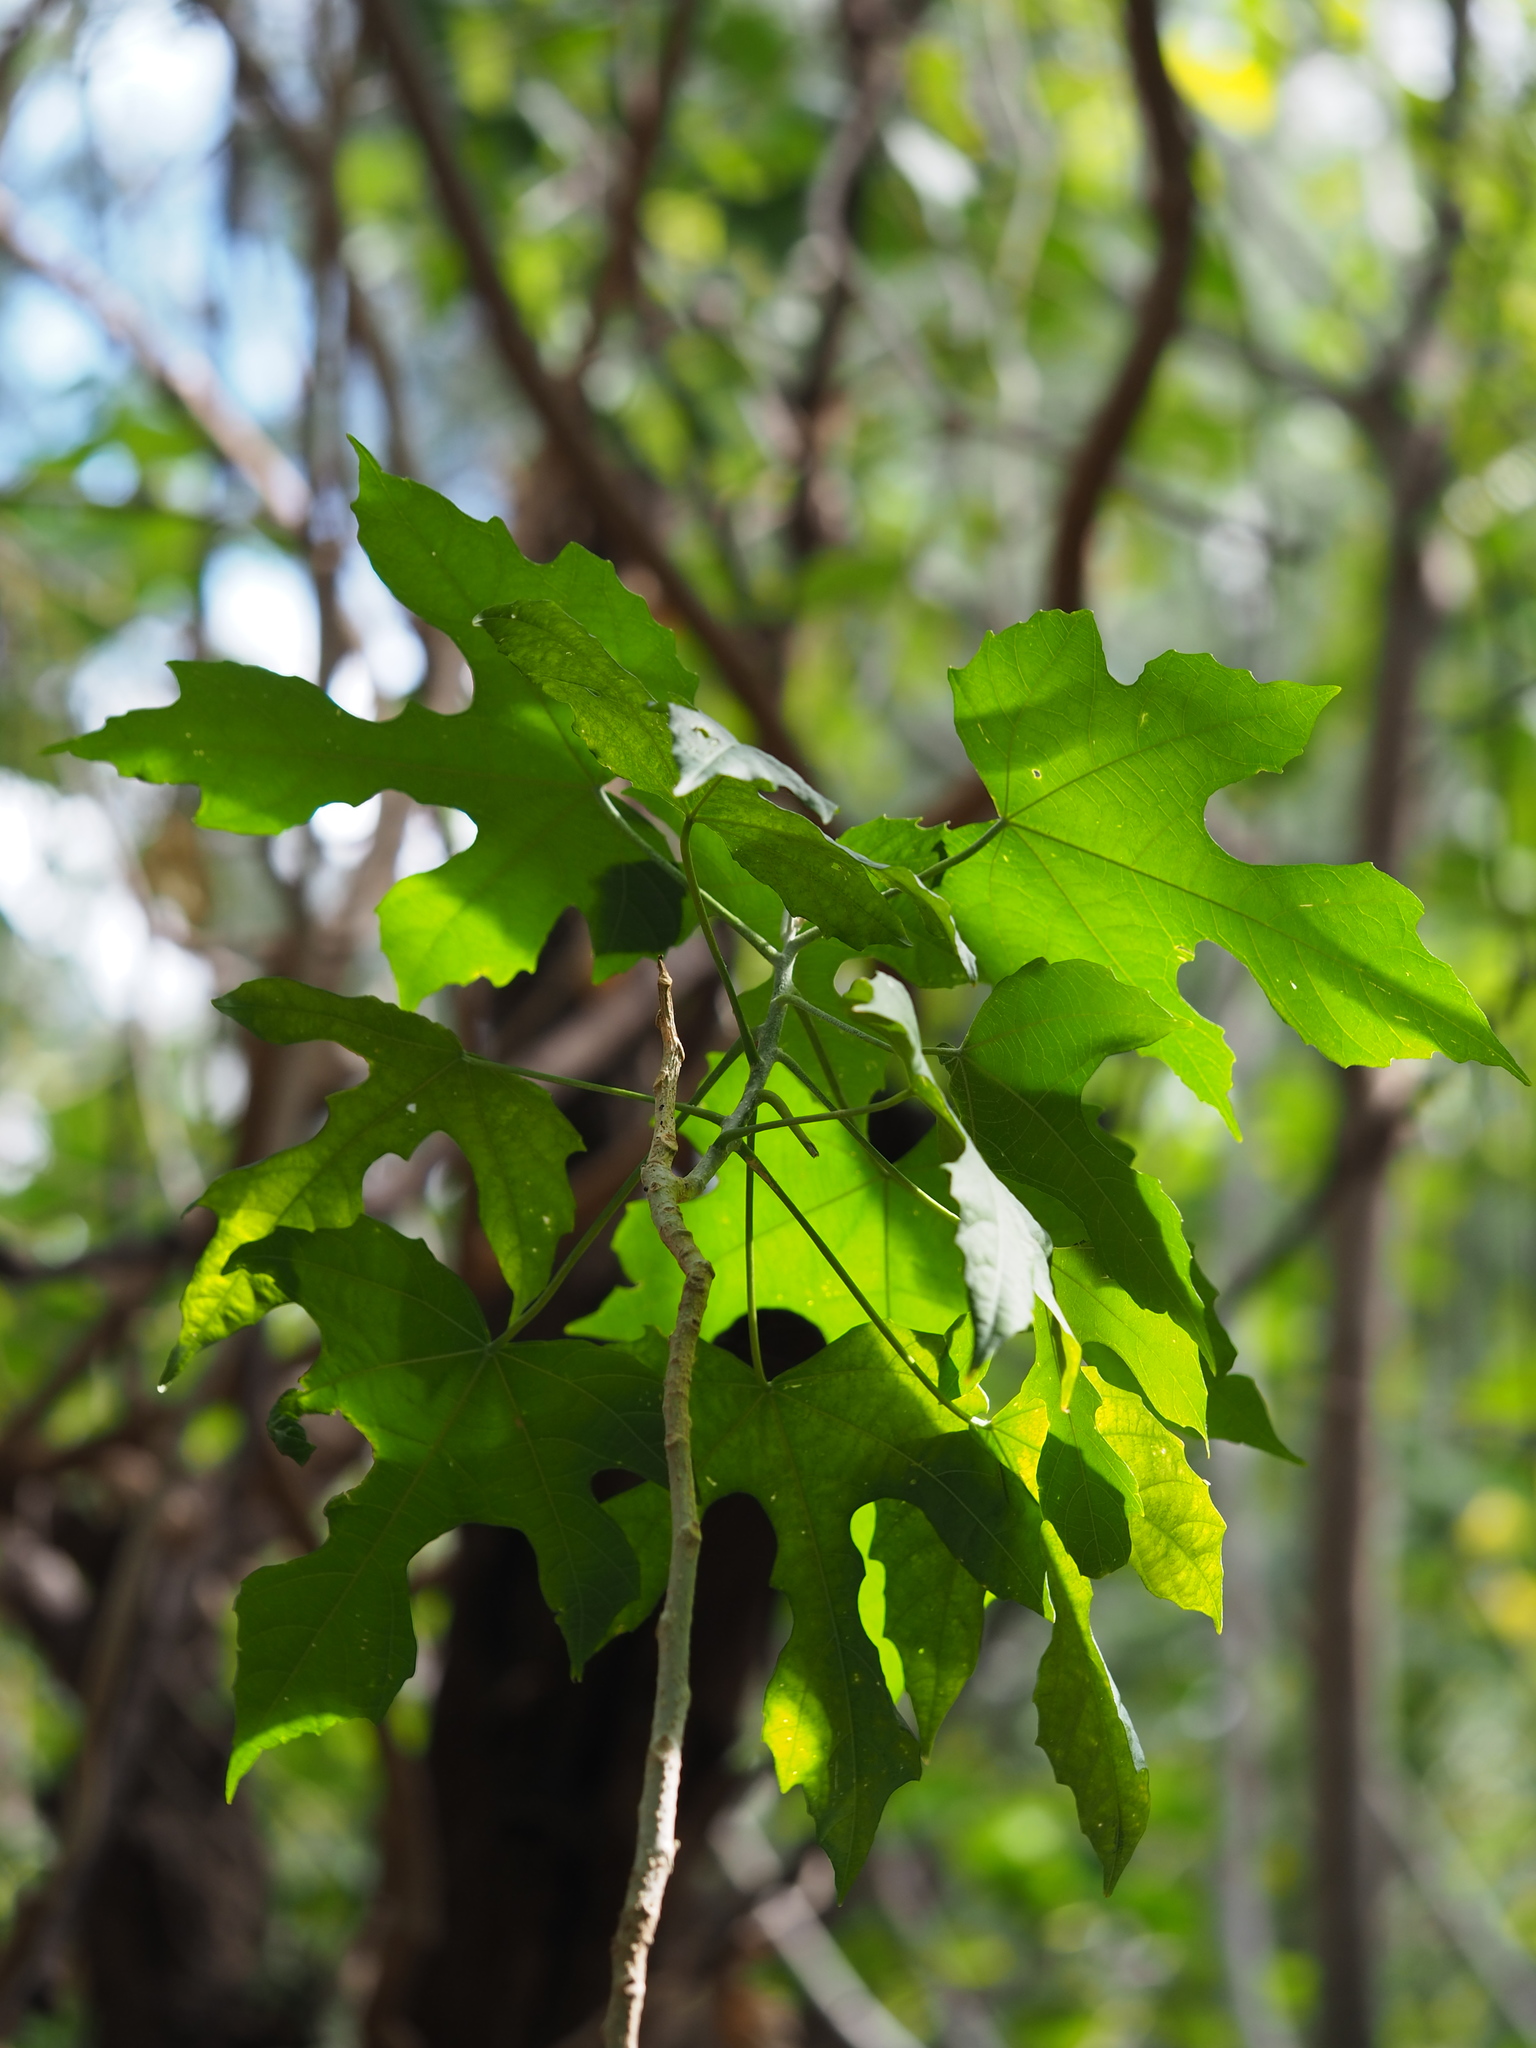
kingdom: Plantae
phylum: Tracheophyta
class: Magnoliopsida
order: Malpighiales
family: Euphorbiaceae
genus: Melanolepis
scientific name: Melanolepis multiglandulosa
